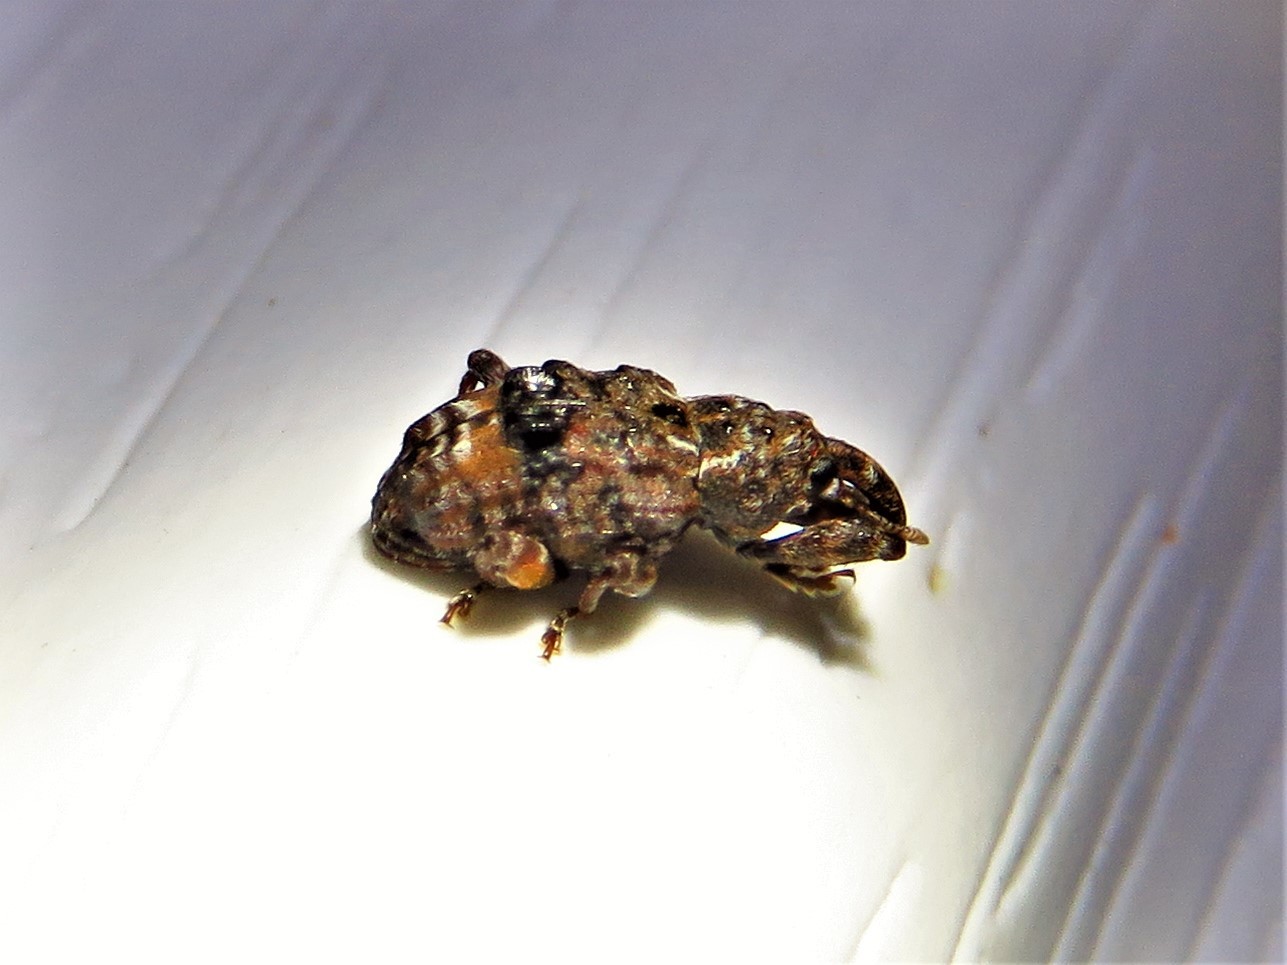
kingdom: Animalia
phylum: Arthropoda
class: Insecta
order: Coleoptera
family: Curculionidae
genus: Conotrachelus
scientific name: Conotrachelus nenuphar
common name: Plum curculio
